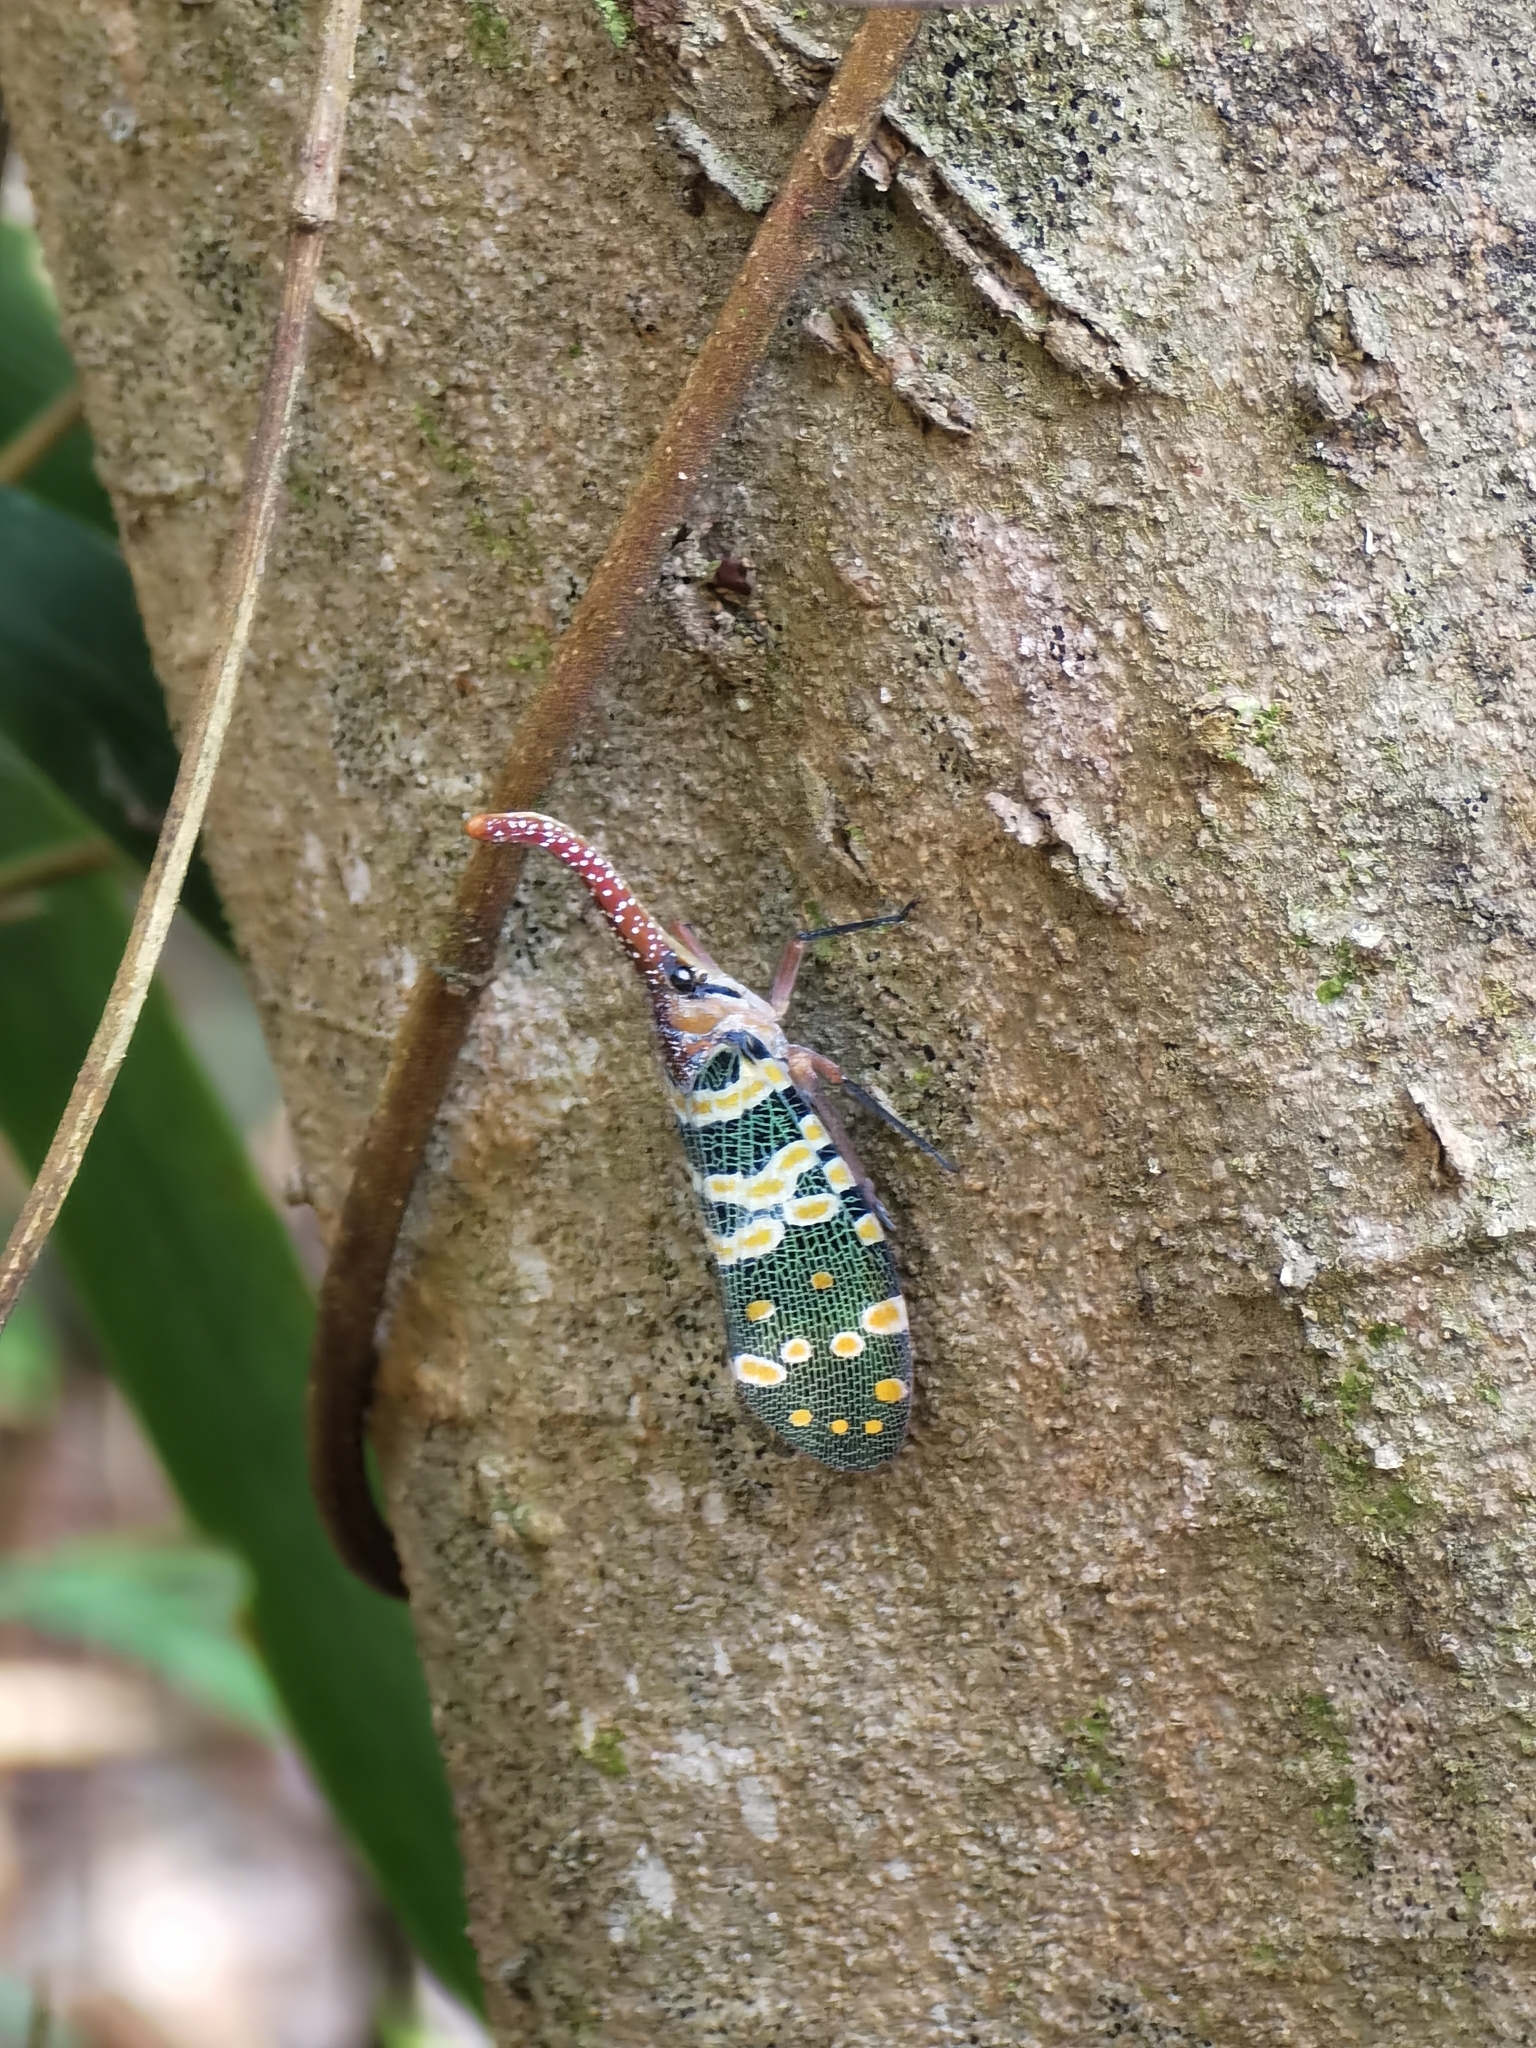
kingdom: Animalia
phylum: Arthropoda
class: Insecta
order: Hemiptera
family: Fulgoridae
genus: Pyrops
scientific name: Pyrops candelaria
